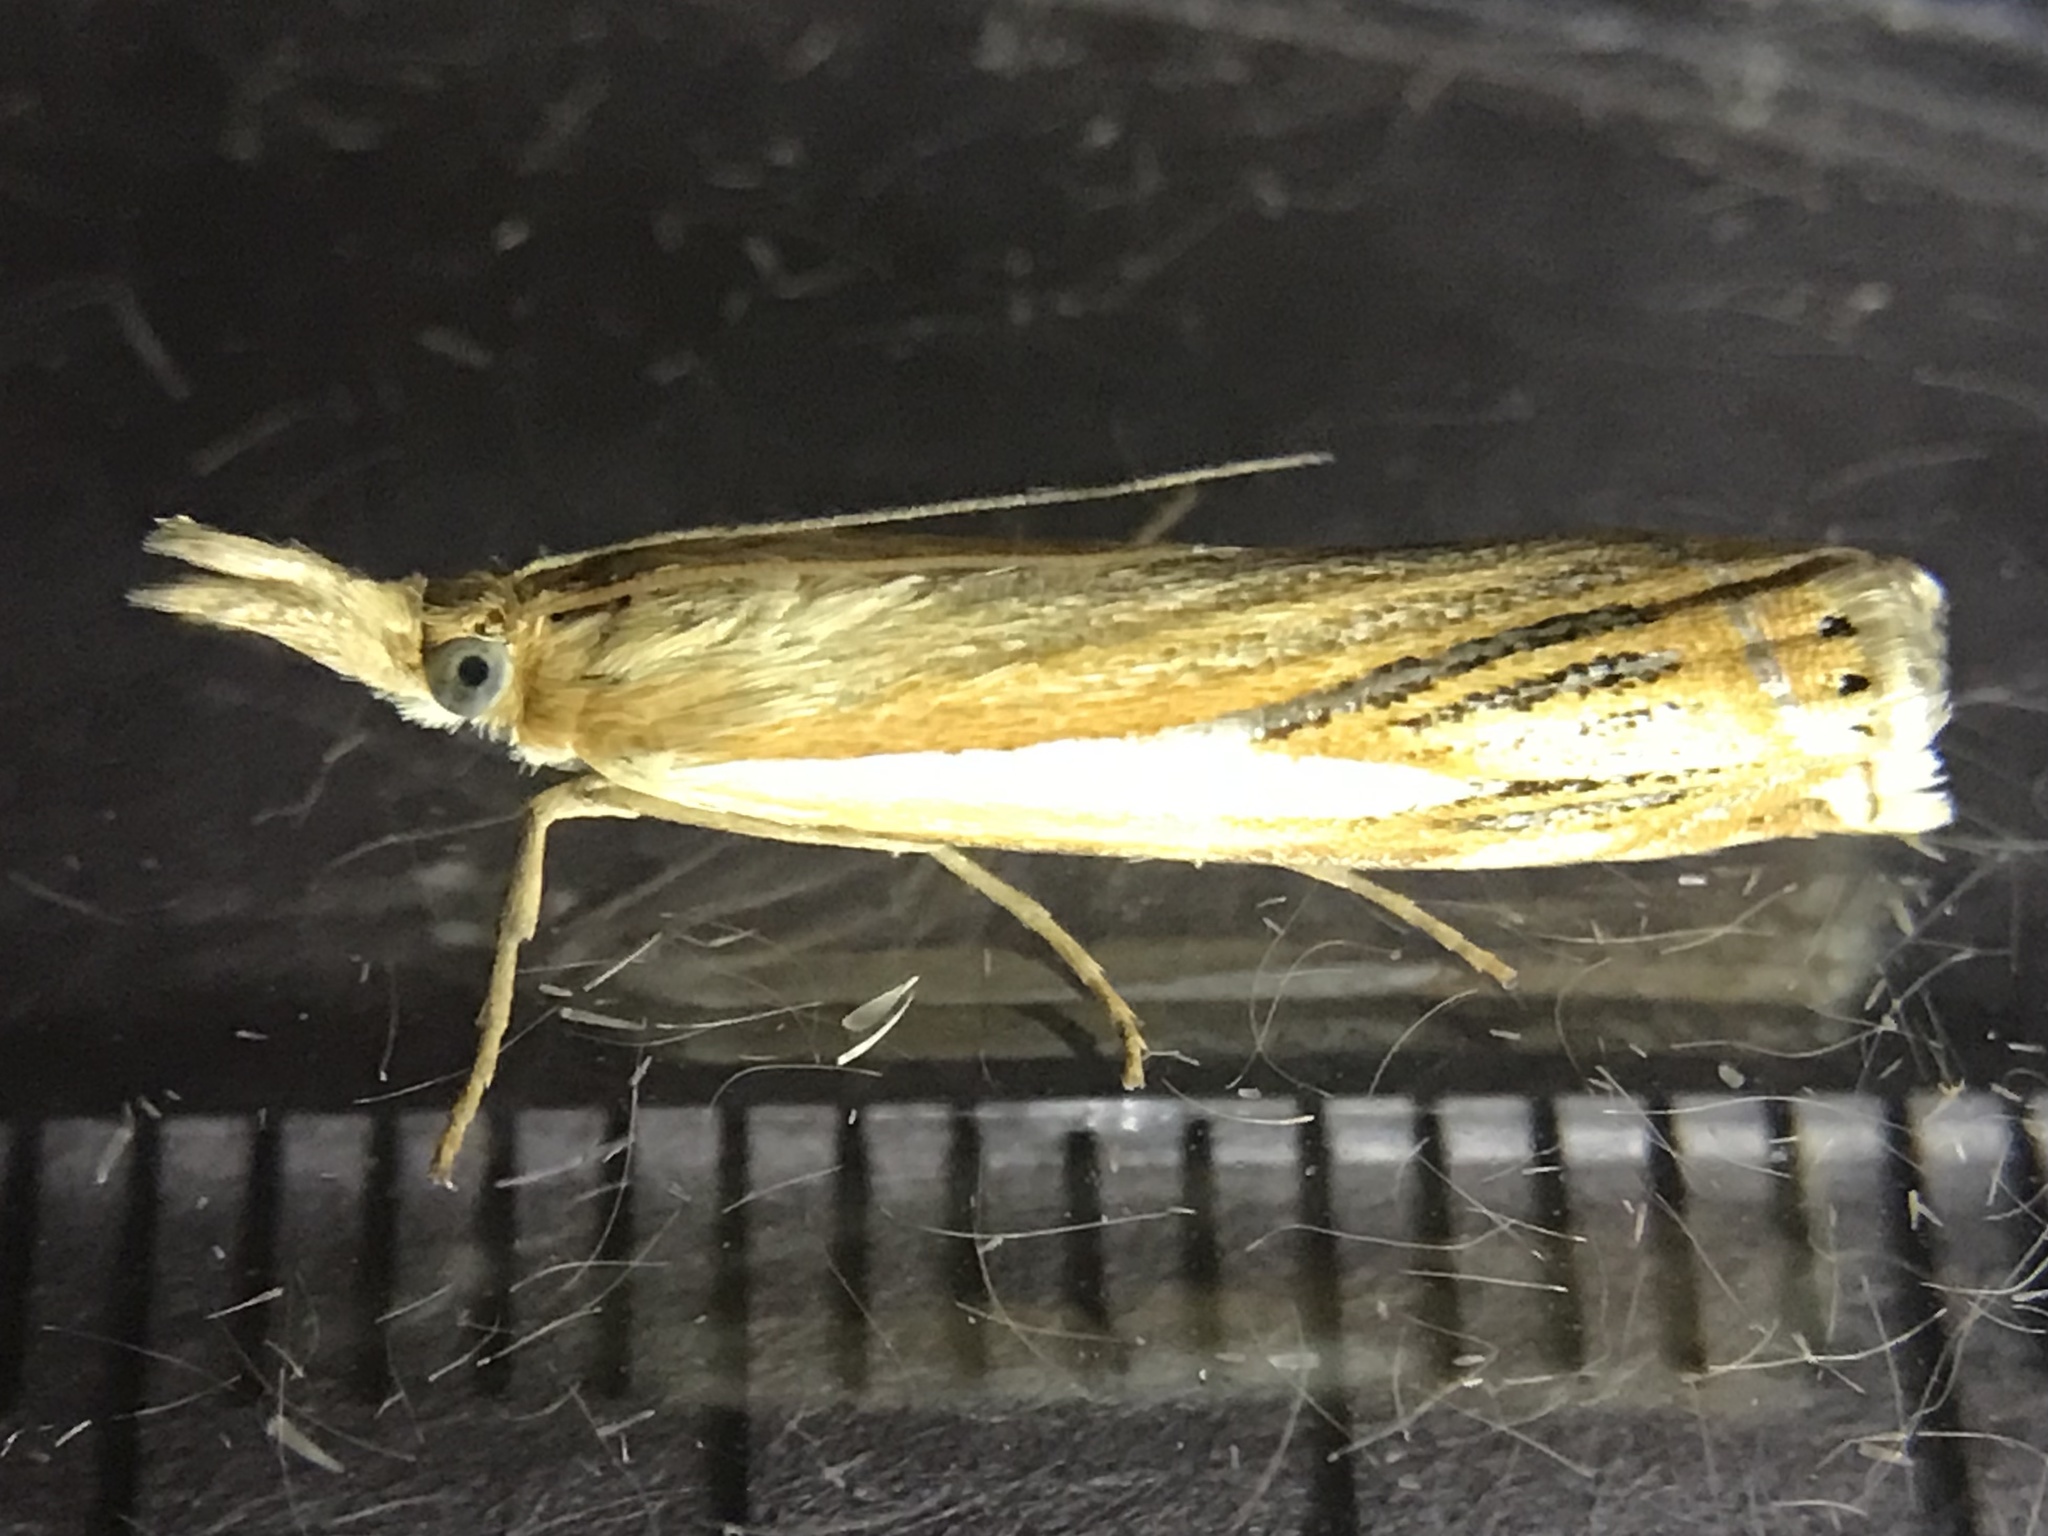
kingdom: Animalia
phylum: Arthropoda
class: Insecta
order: Lepidoptera
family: Crambidae
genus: Crambus
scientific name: Crambus agitatellus
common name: Double-banded grass-veneer
